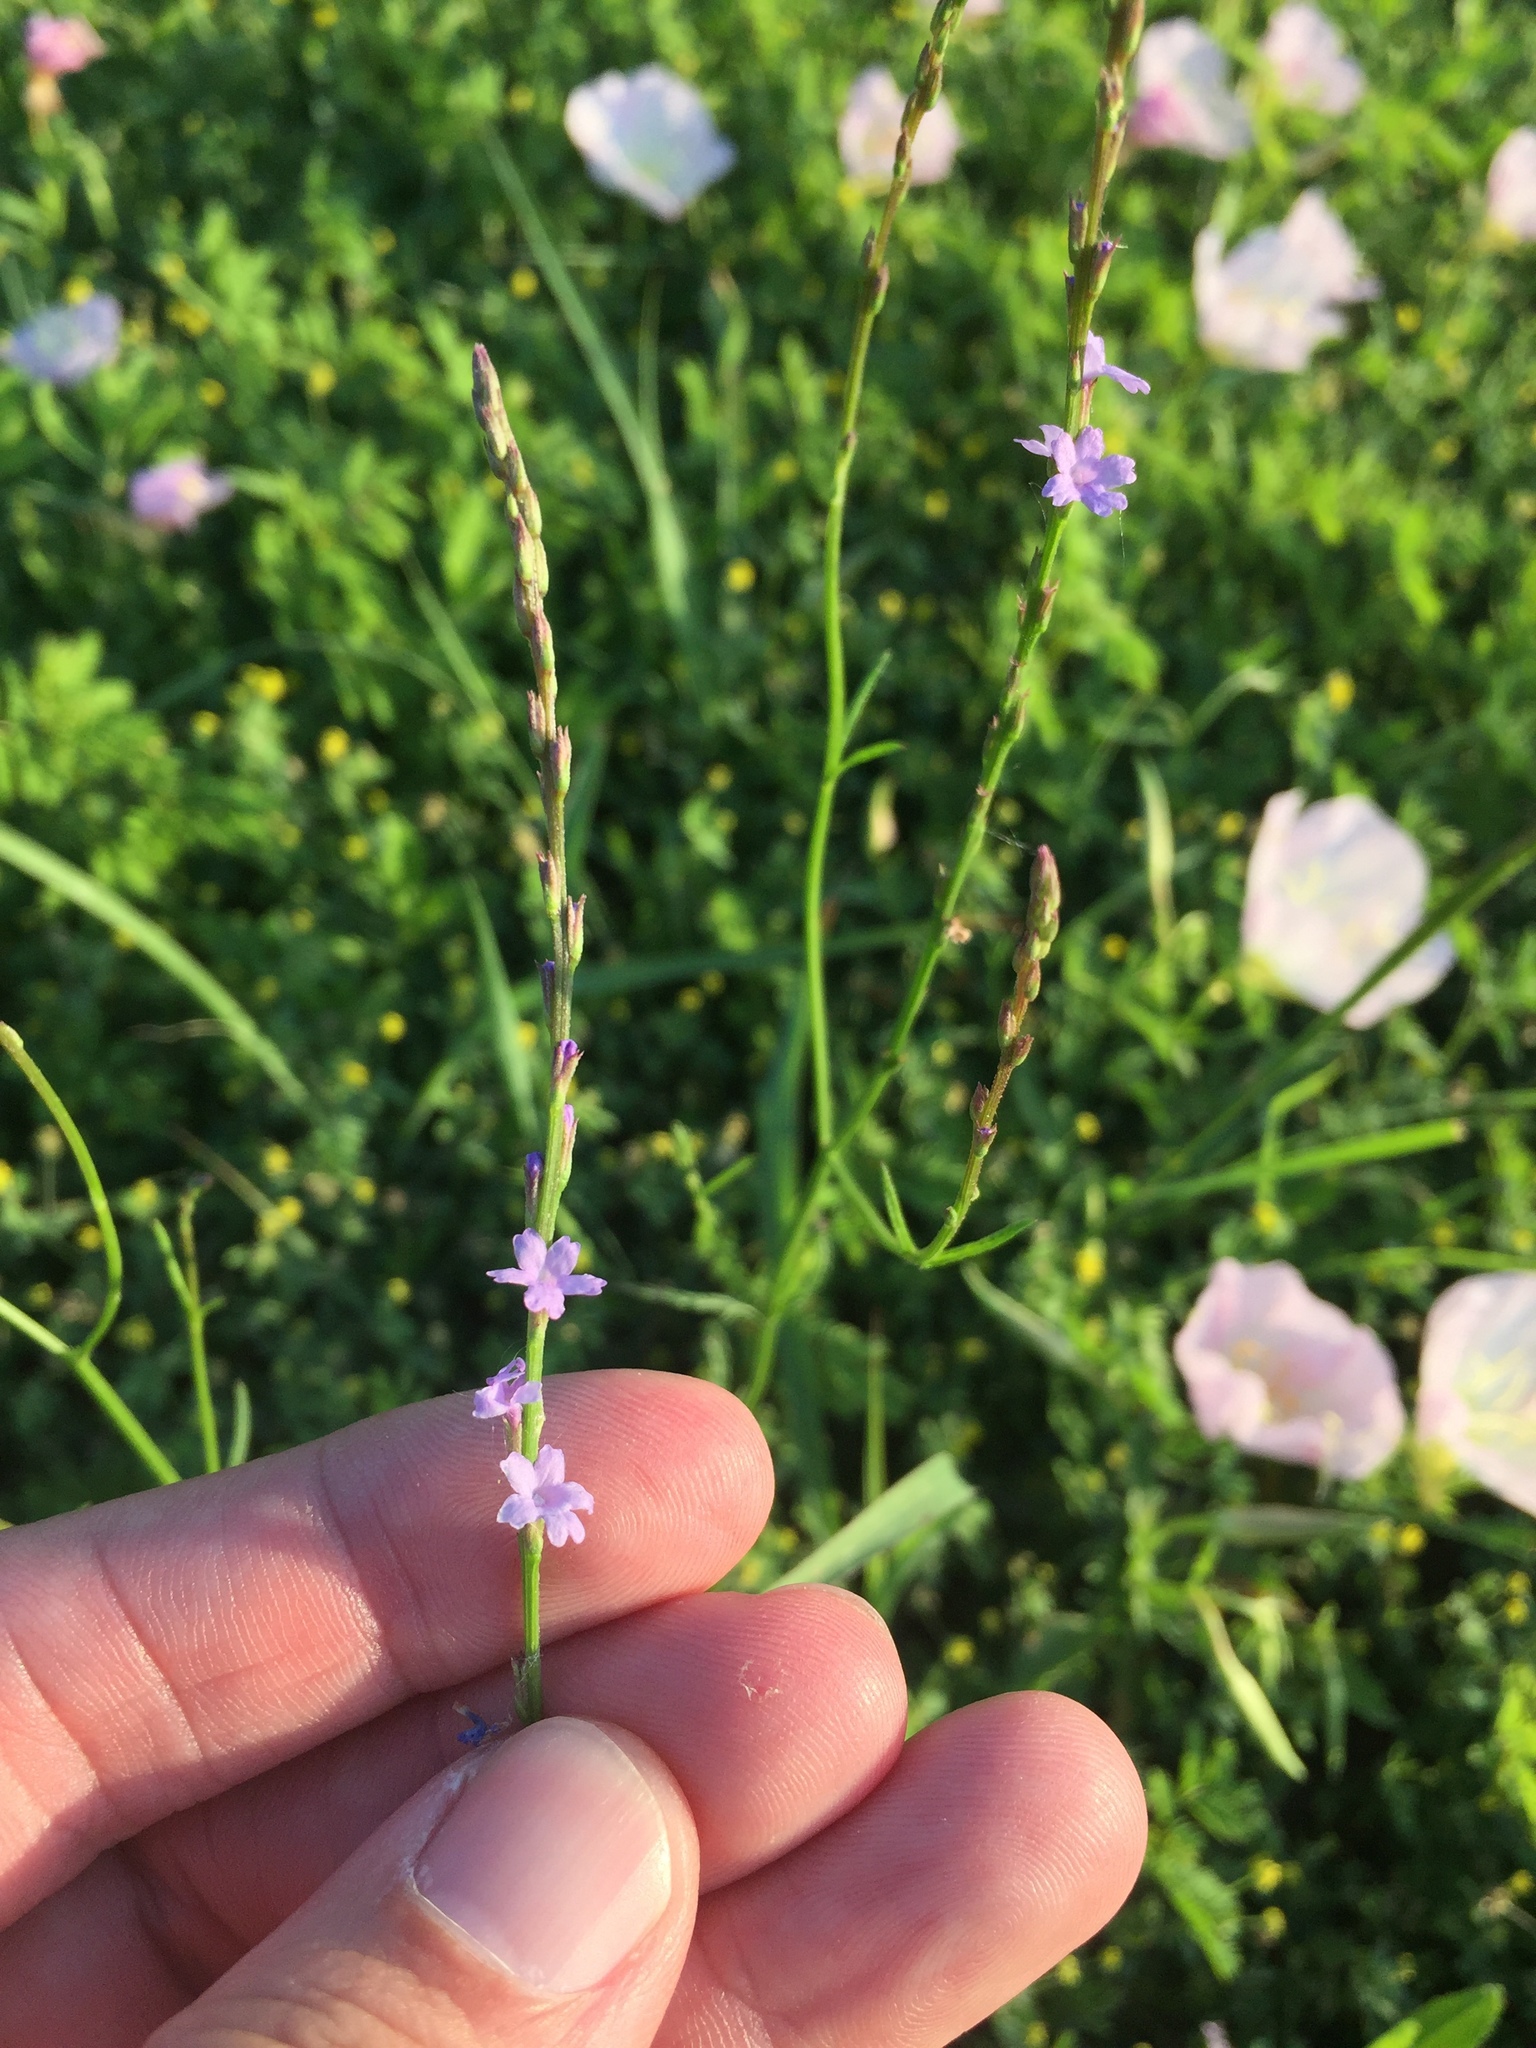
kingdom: Plantae
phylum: Tracheophyta
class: Magnoliopsida
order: Lamiales
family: Verbenaceae
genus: Verbena
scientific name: Verbena halei
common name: Texas vervain
